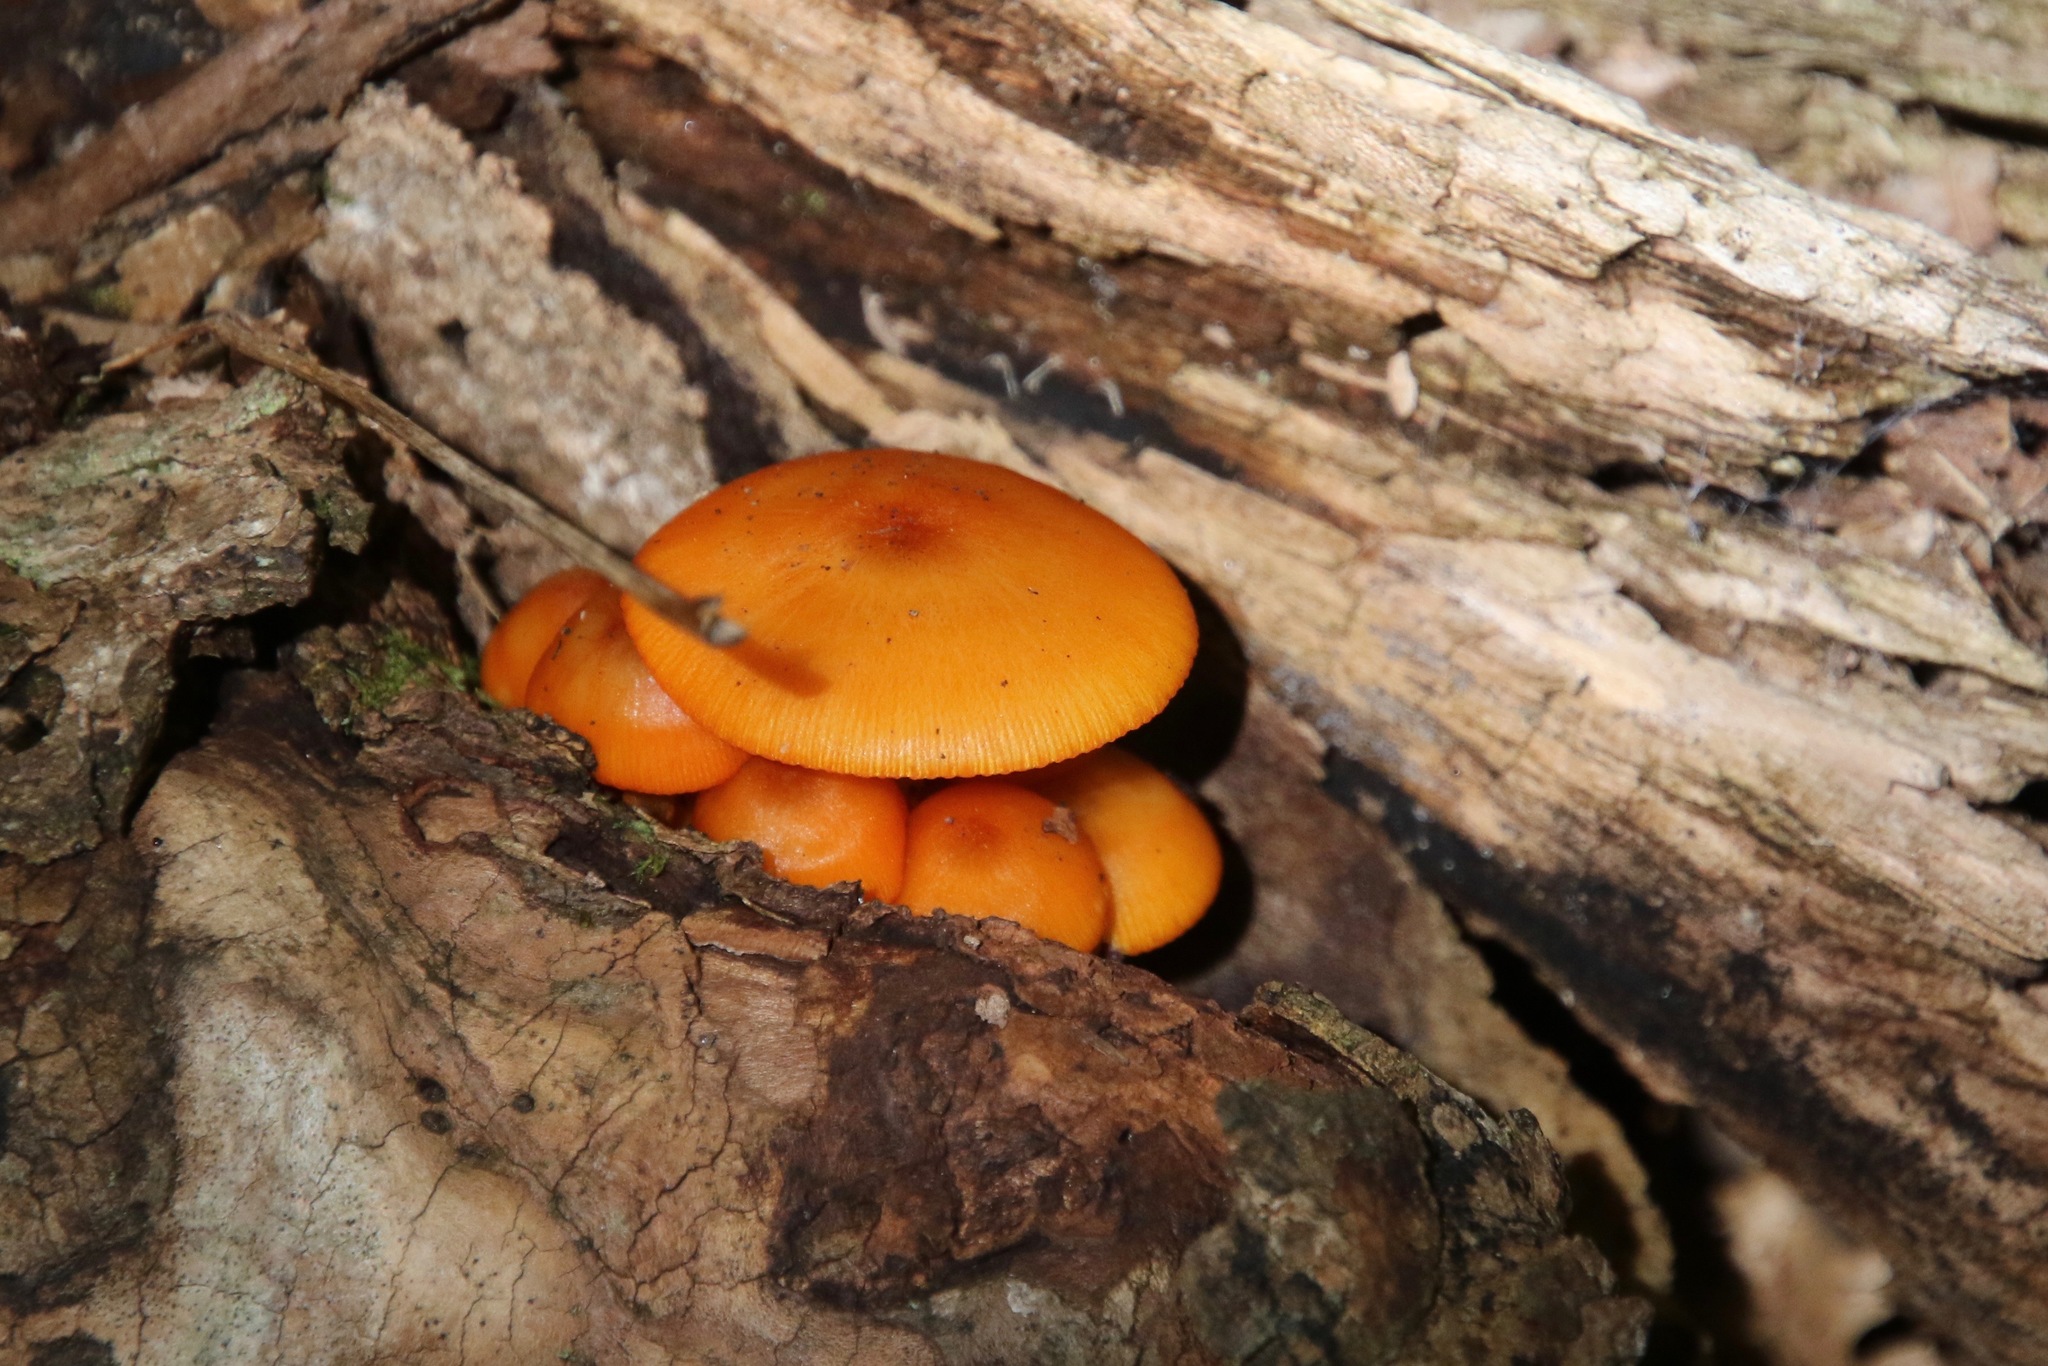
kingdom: Fungi
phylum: Basidiomycota
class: Agaricomycetes
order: Agaricales
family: Mycenaceae
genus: Mycena
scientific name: Mycena leaiana
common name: Orange mycena
